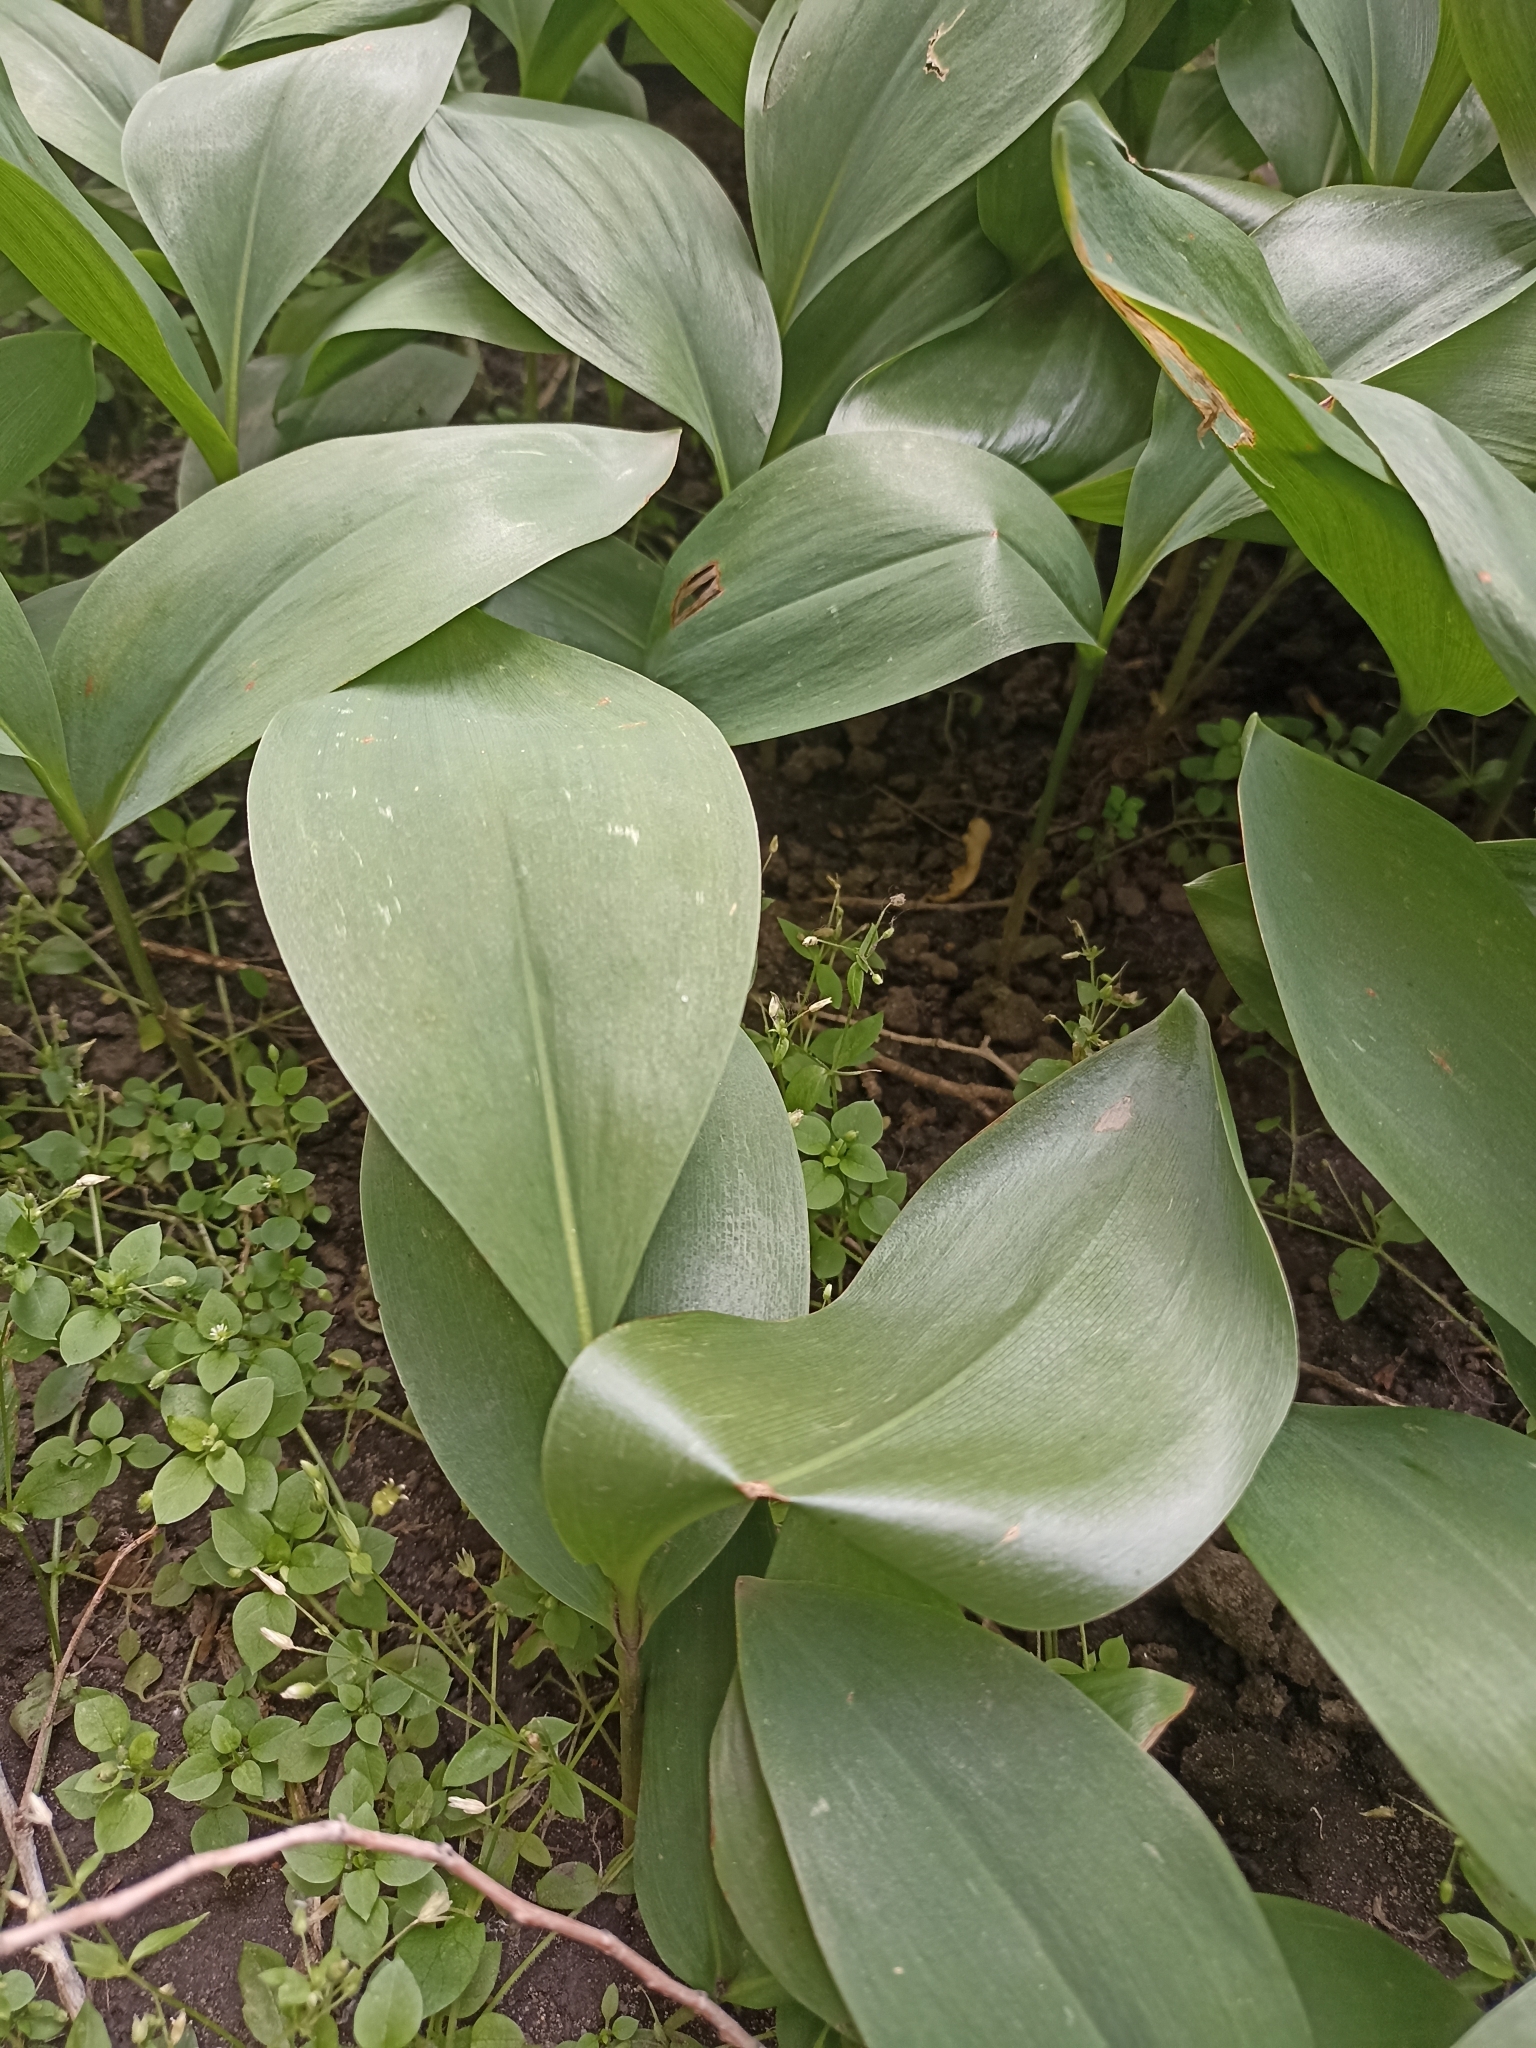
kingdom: Plantae
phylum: Tracheophyta
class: Liliopsida
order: Asparagales
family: Asparagaceae
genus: Convallaria
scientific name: Convallaria majalis
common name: Lily-of-the-valley
